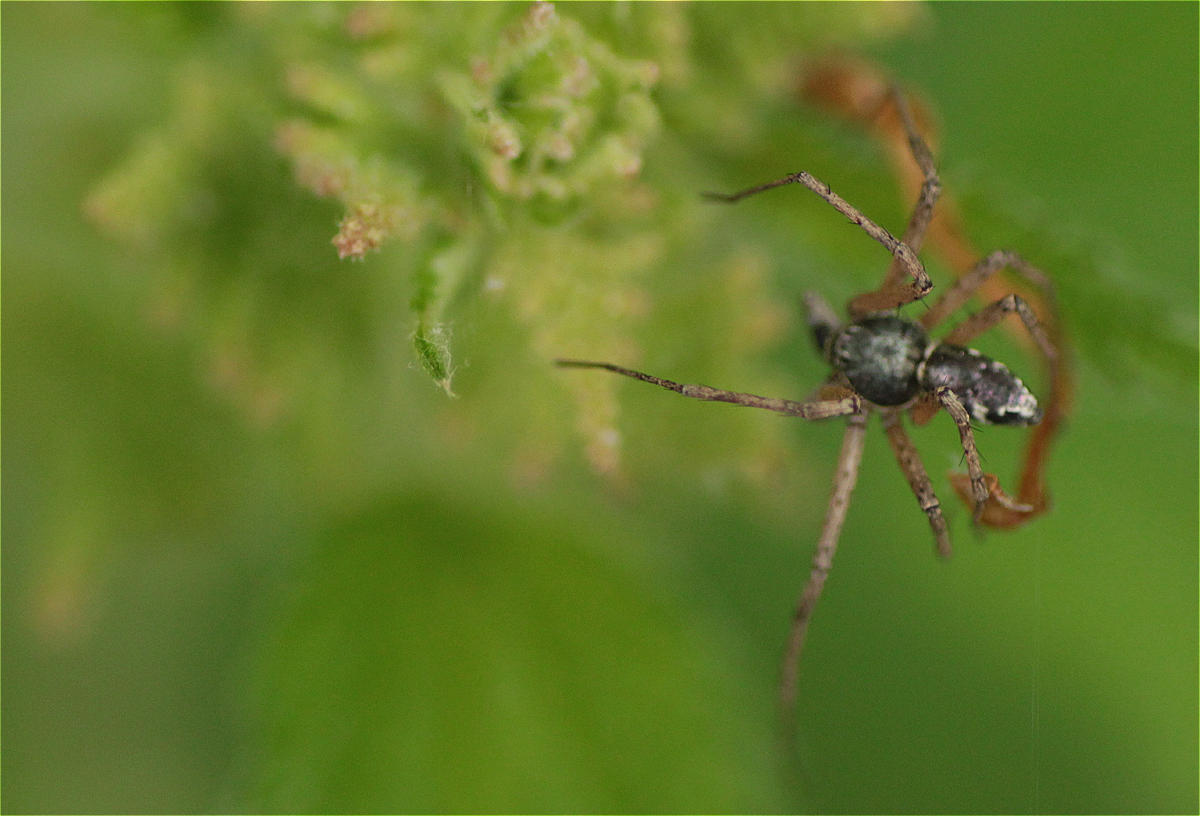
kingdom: Animalia
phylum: Arthropoda
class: Arachnida
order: Araneae
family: Philodromidae
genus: Philodromus
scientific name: Philodromus
